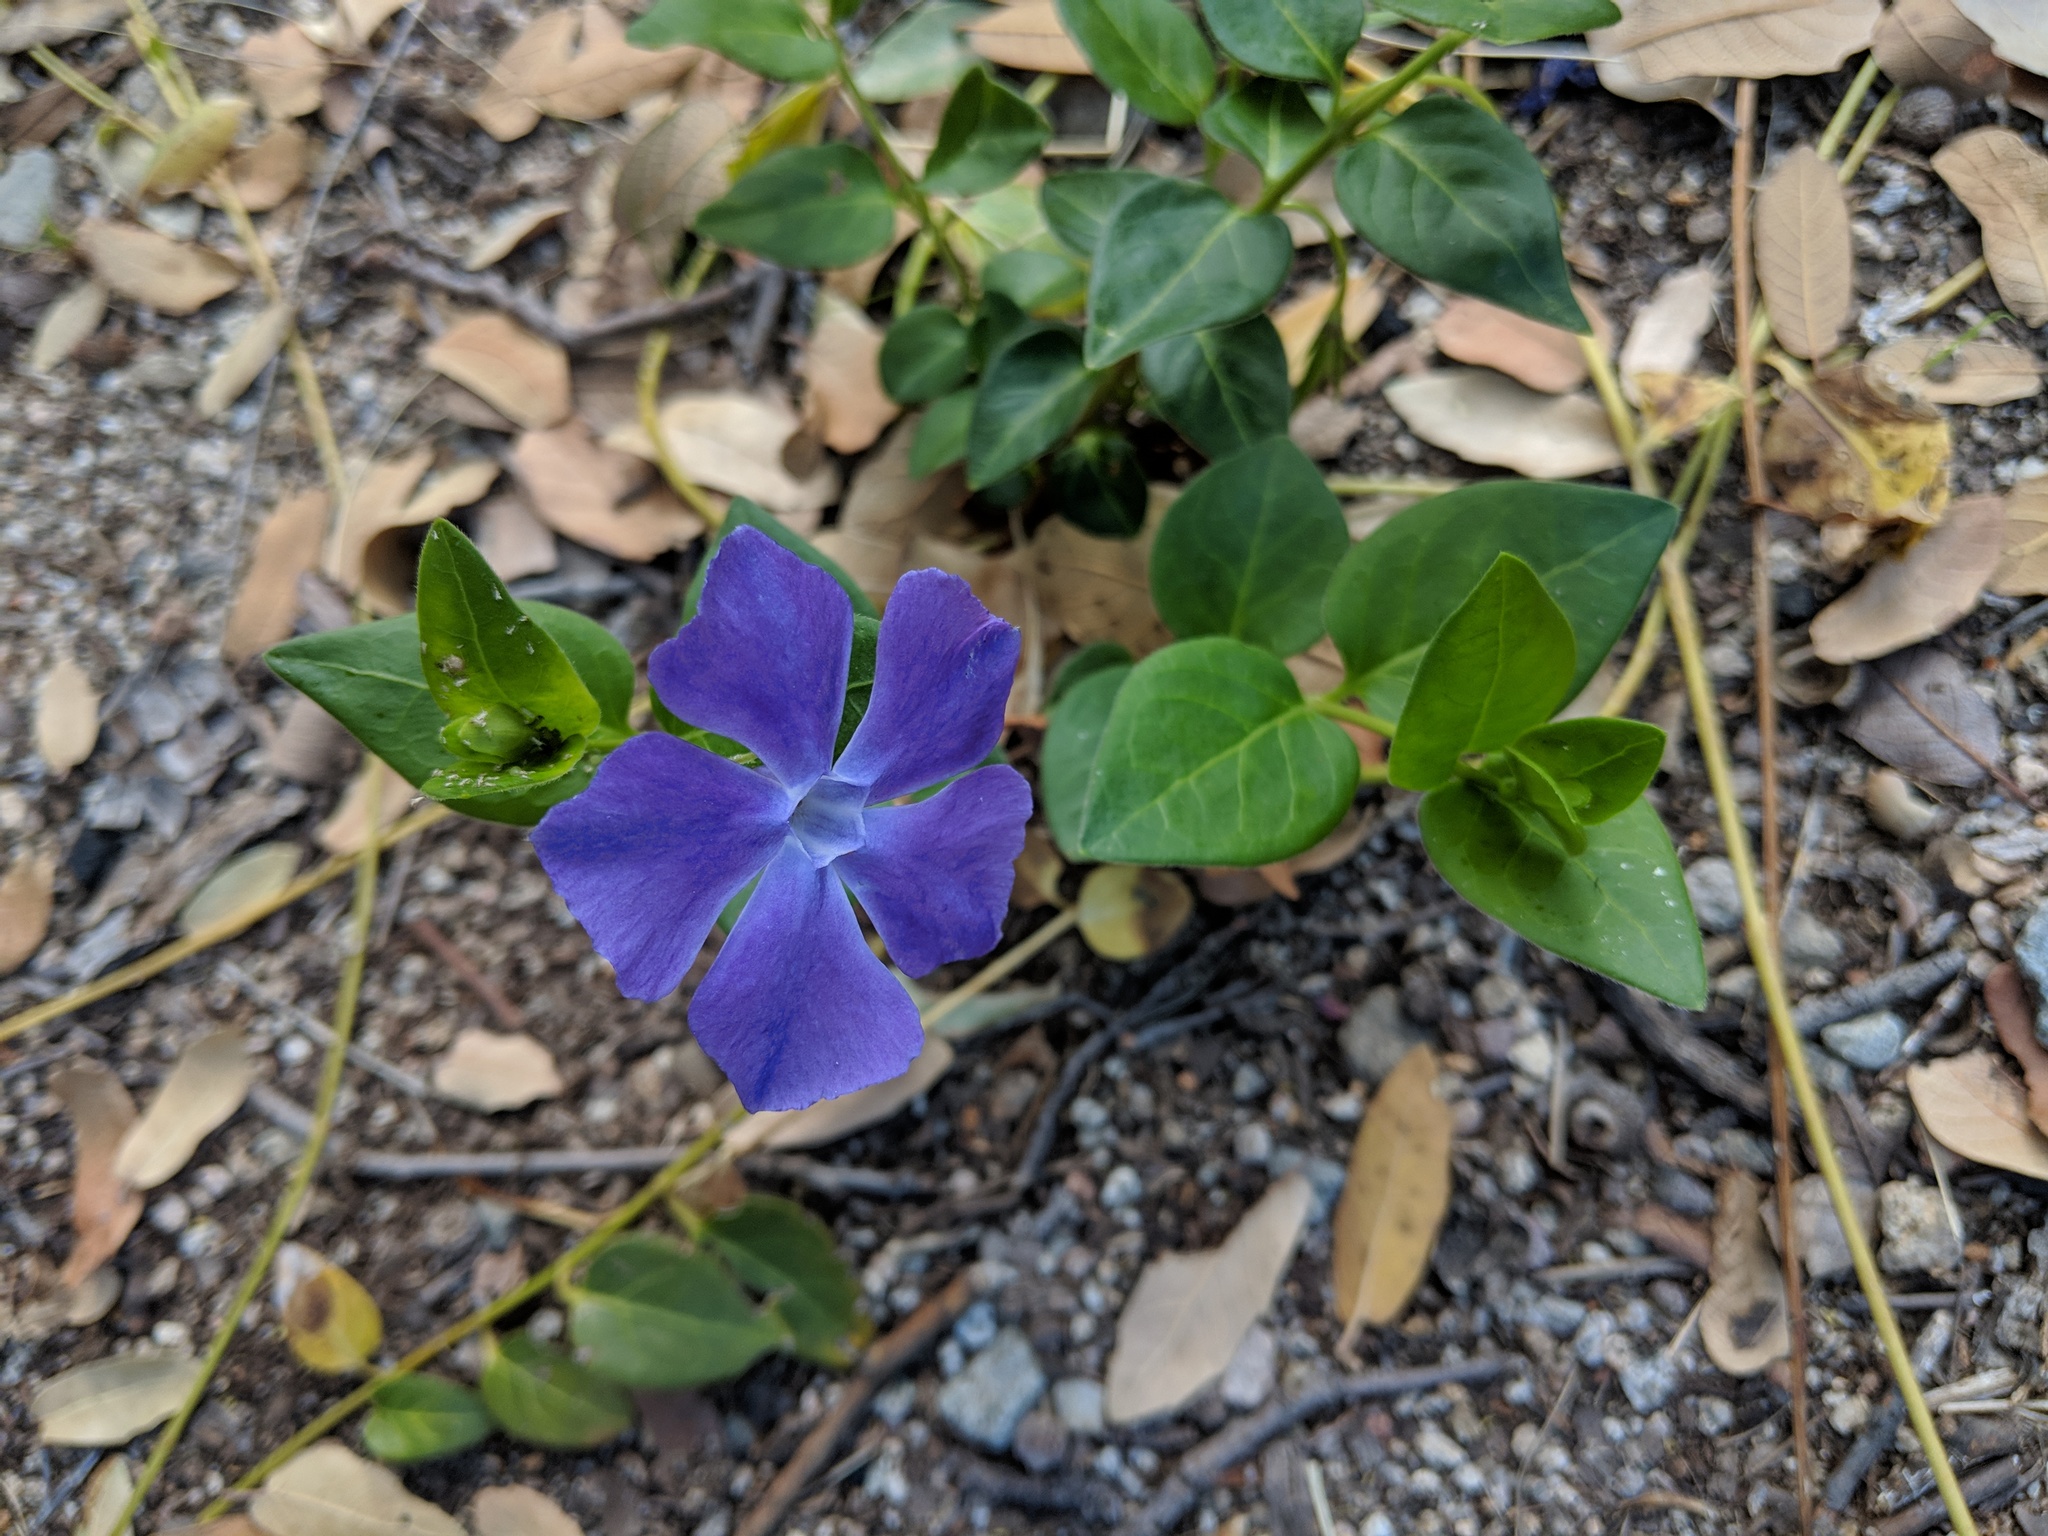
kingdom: Plantae
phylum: Tracheophyta
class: Magnoliopsida
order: Gentianales
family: Apocynaceae
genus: Vinca
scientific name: Vinca major
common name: Greater periwinkle
